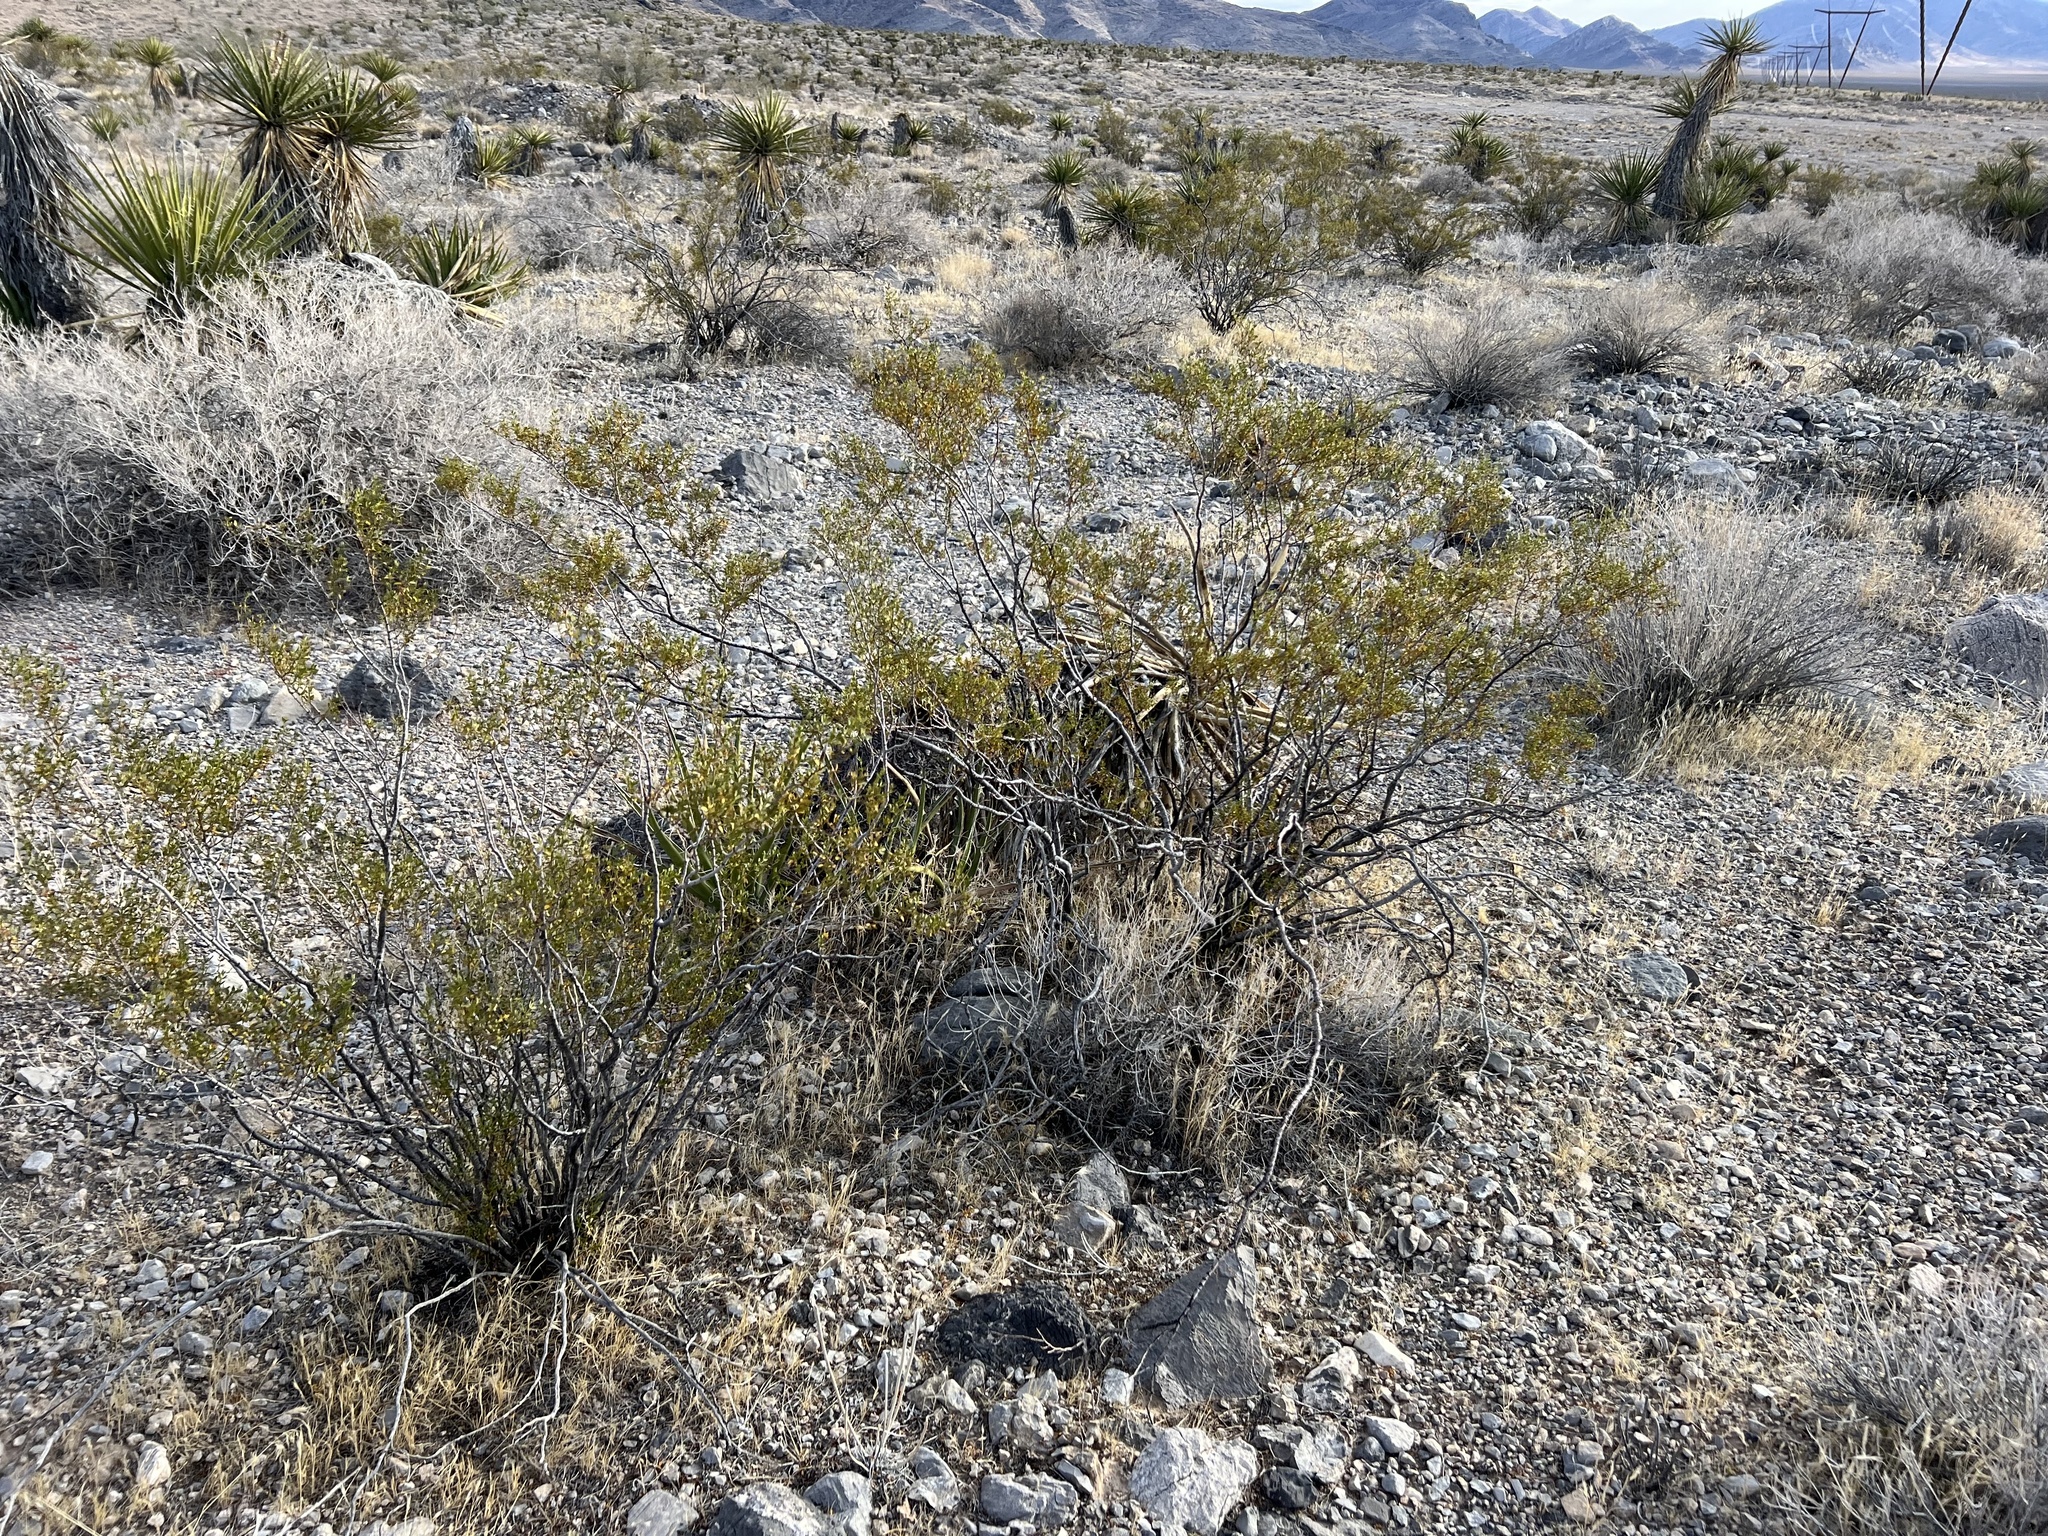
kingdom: Plantae
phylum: Tracheophyta
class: Magnoliopsida
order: Zygophyllales
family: Zygophyllaceae
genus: Larrea
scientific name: Larrea tridentata
